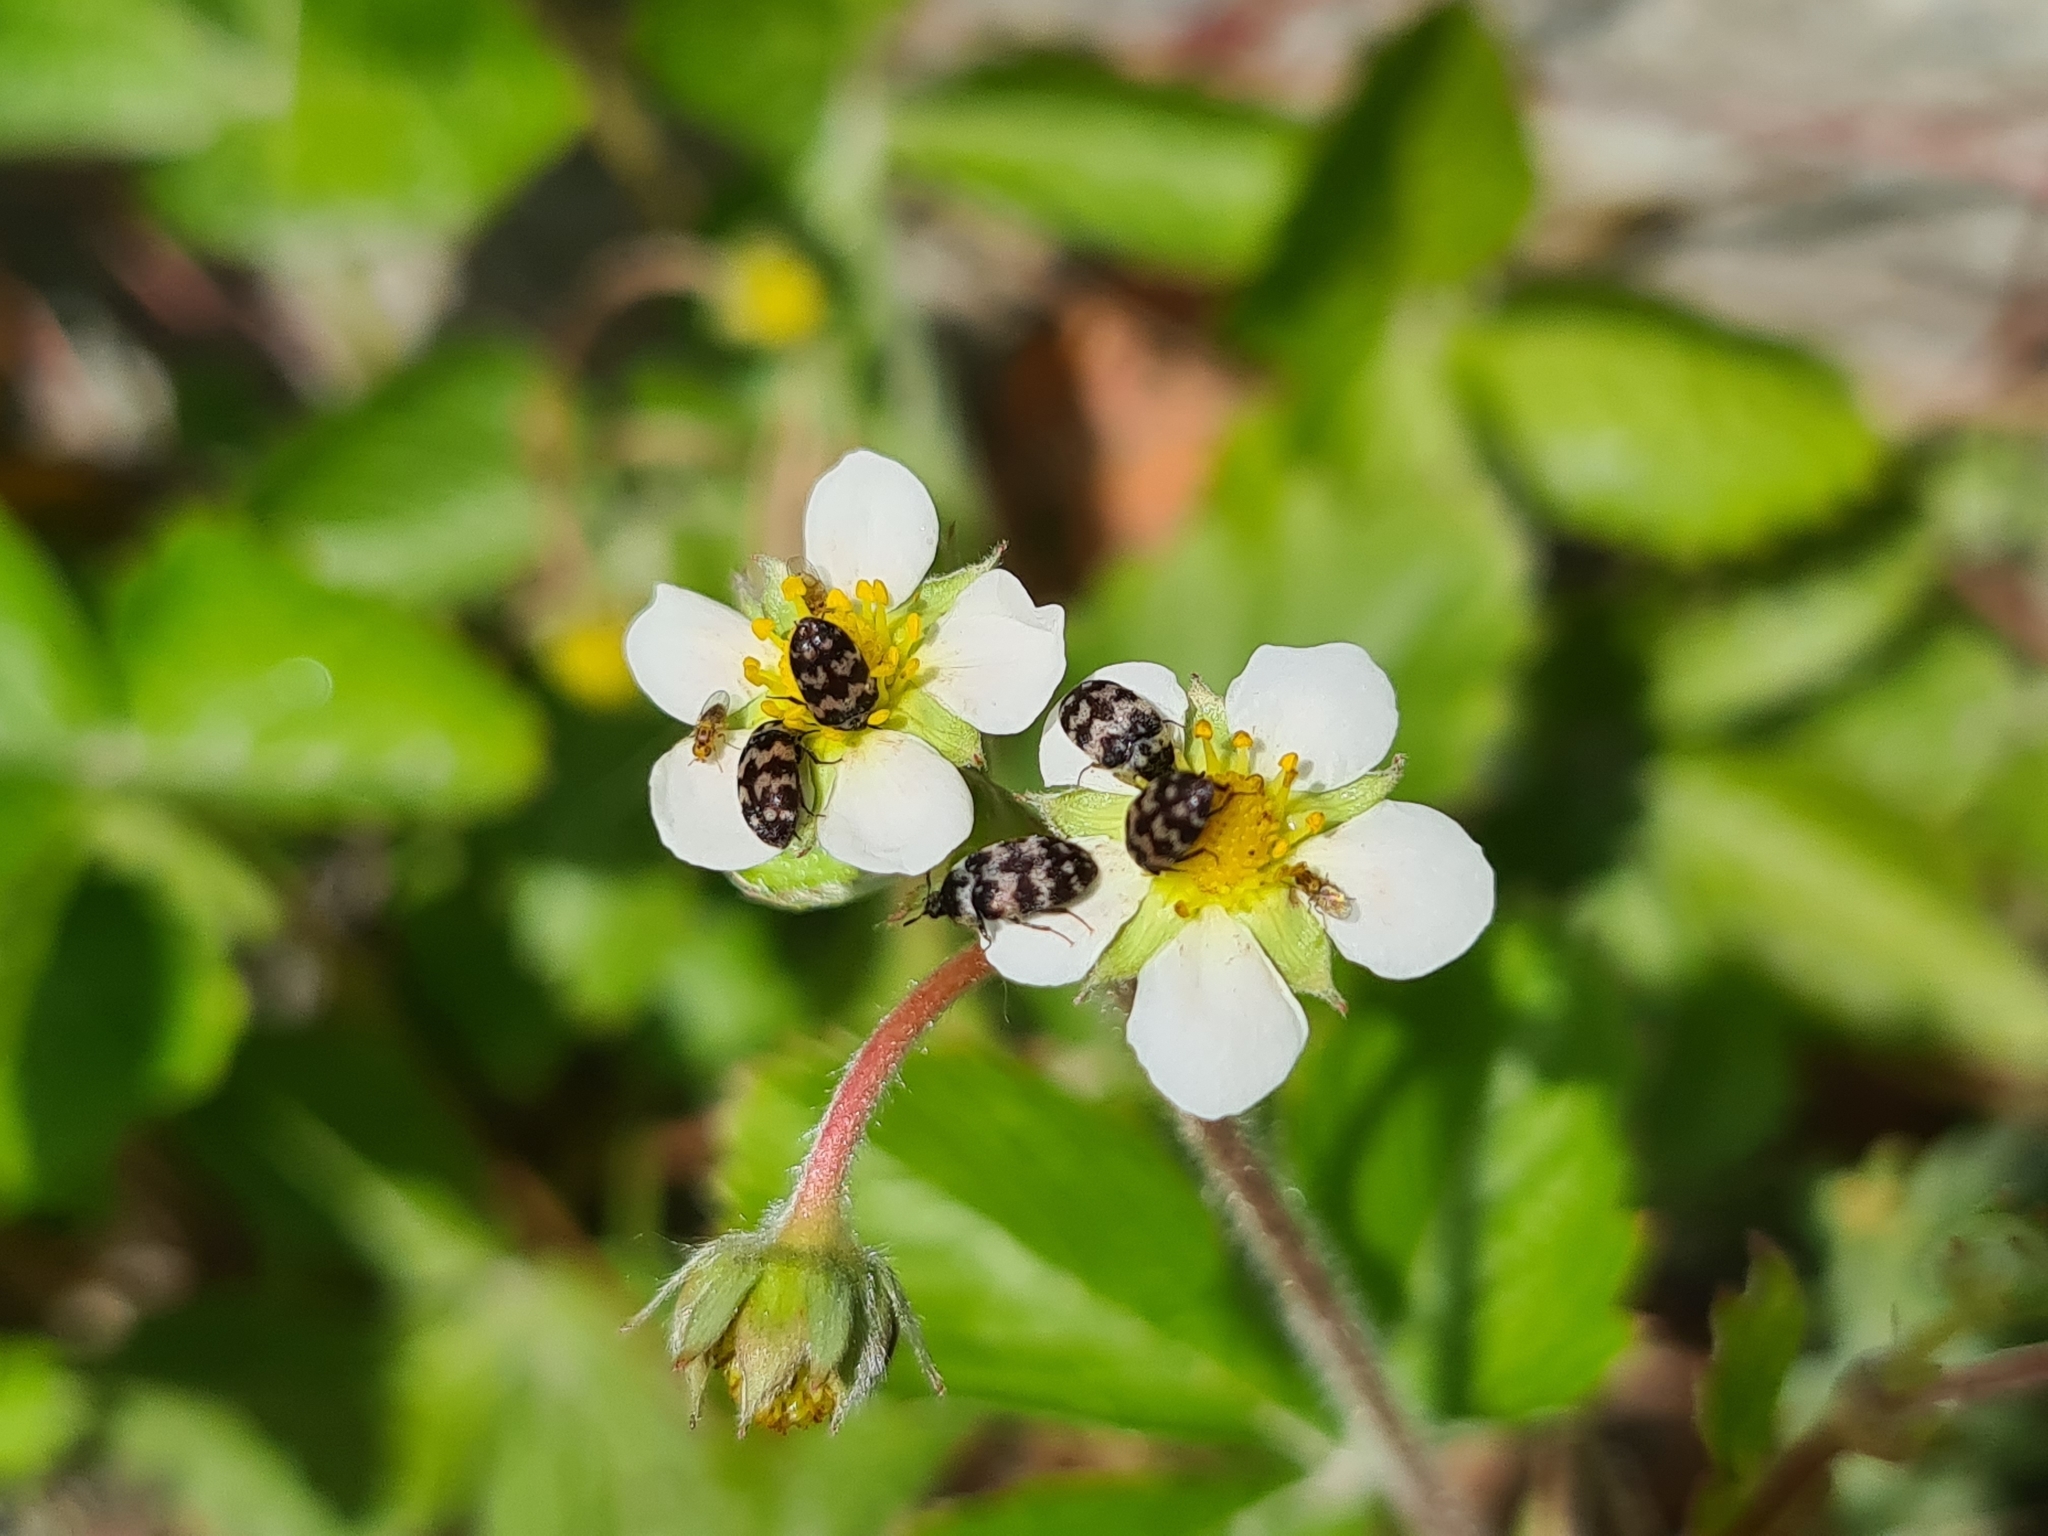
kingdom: Animalia
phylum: Arthropoda
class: Insecta
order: Coleoptera
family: Dermestidae
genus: Attagenus
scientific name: Attagenus trifasciatus
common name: Carpet beetle
